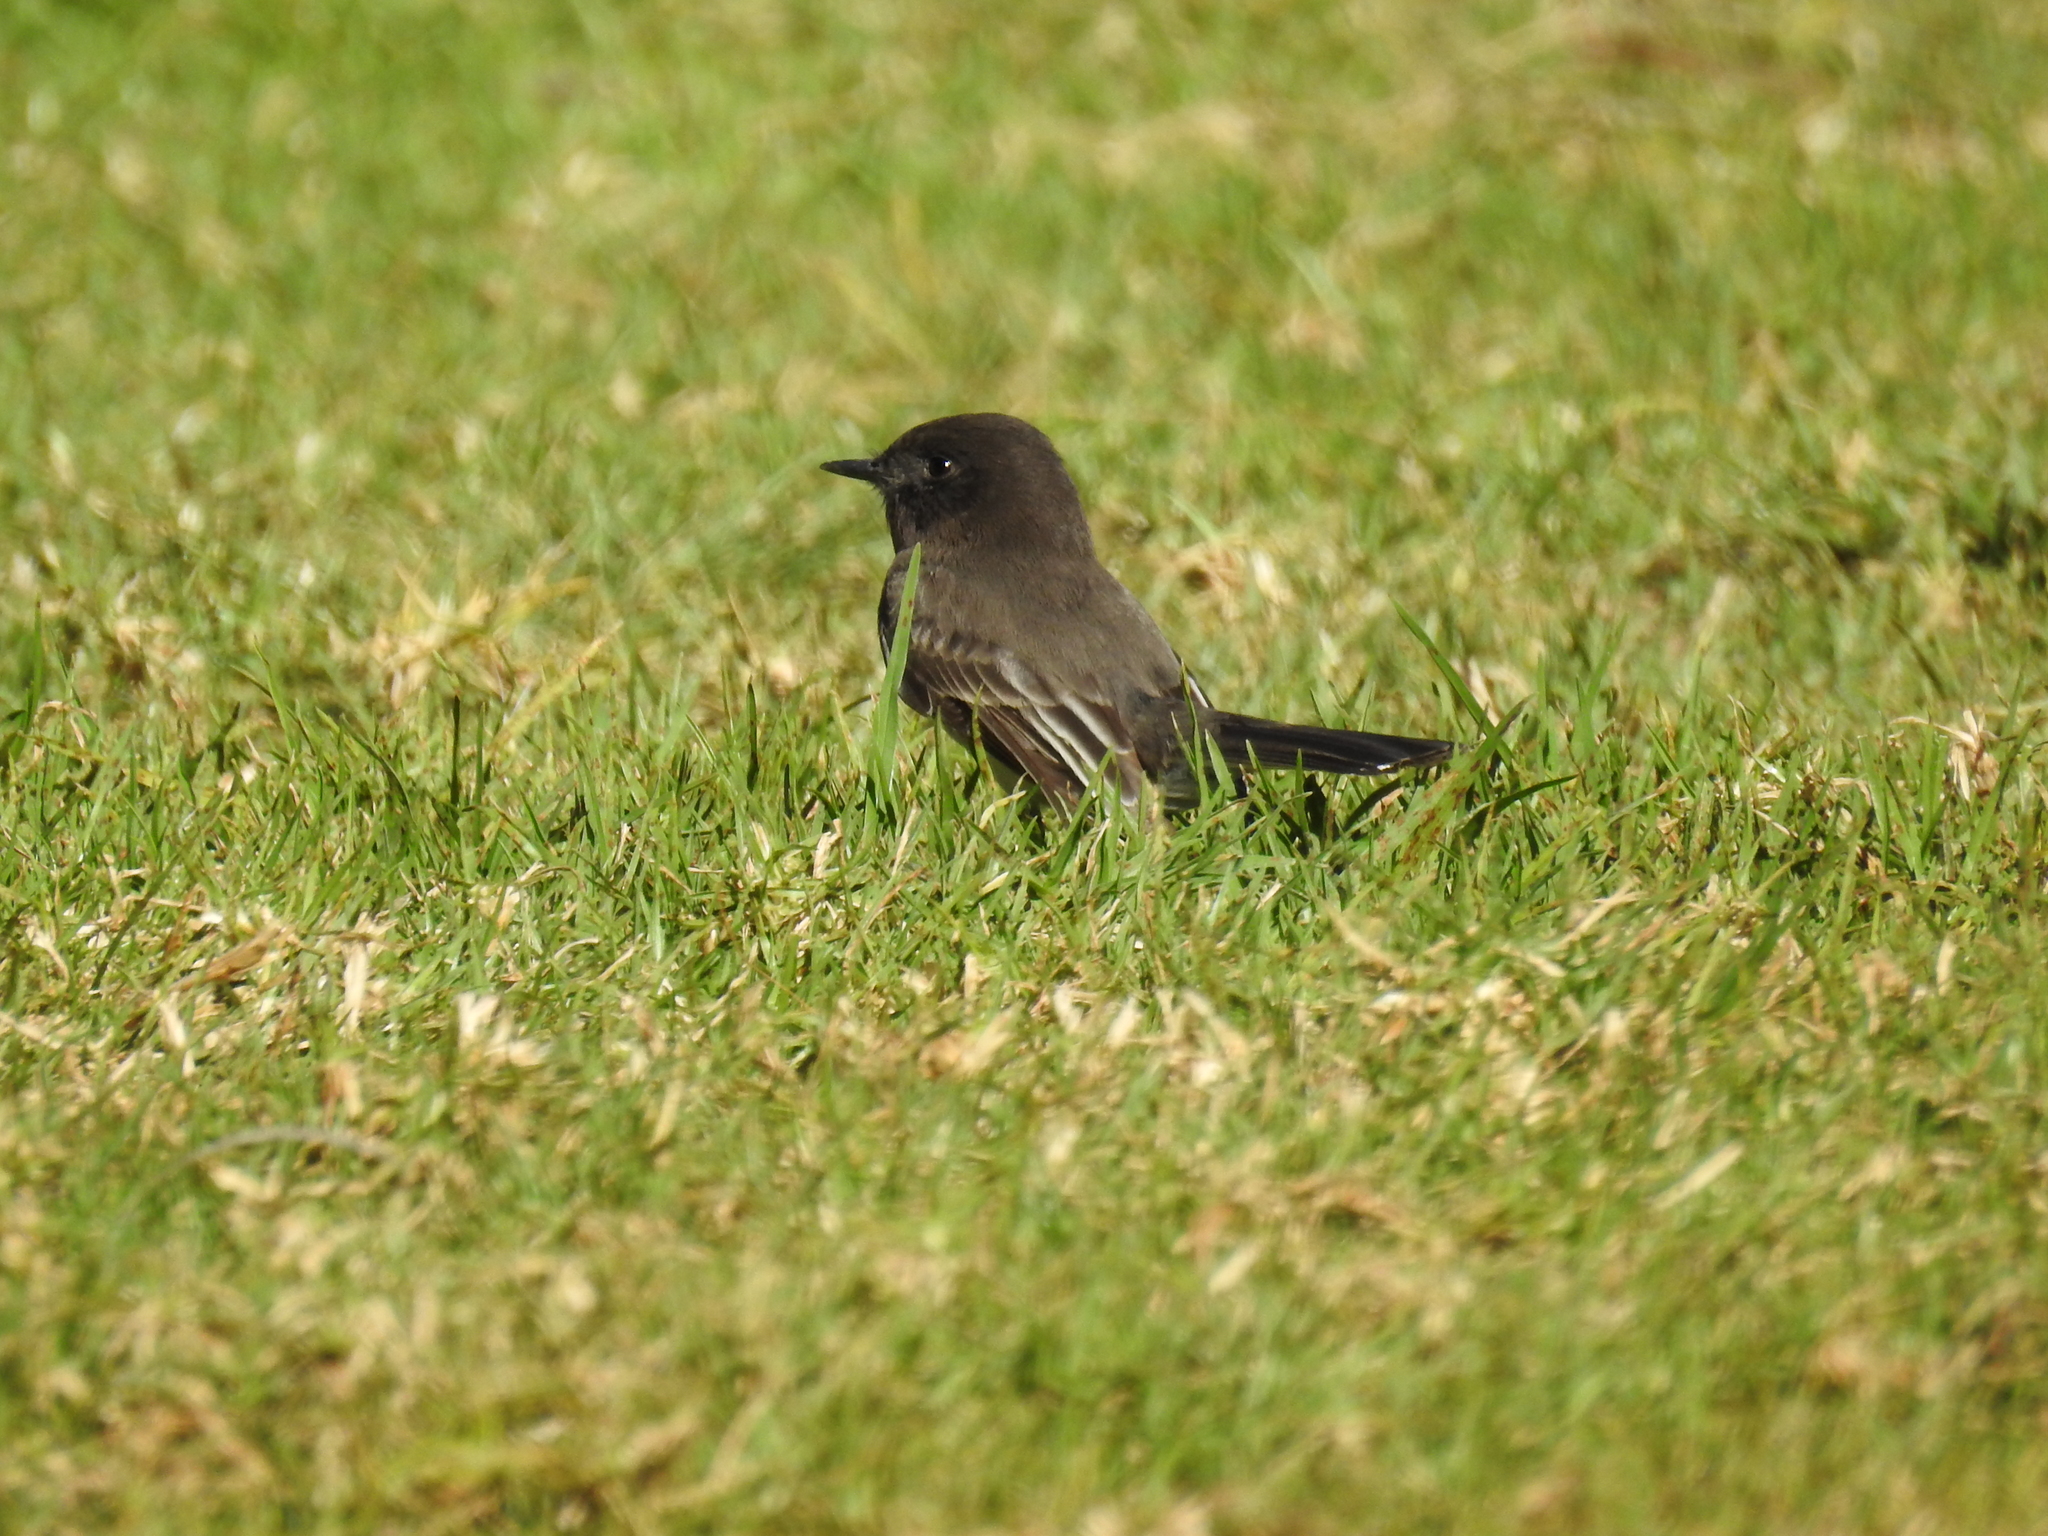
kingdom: Animalia
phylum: Chordata
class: Aves
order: Passeriformes
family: Tyrannidae
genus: Sayornis
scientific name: Sayornis nigricans
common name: Black phoebe
